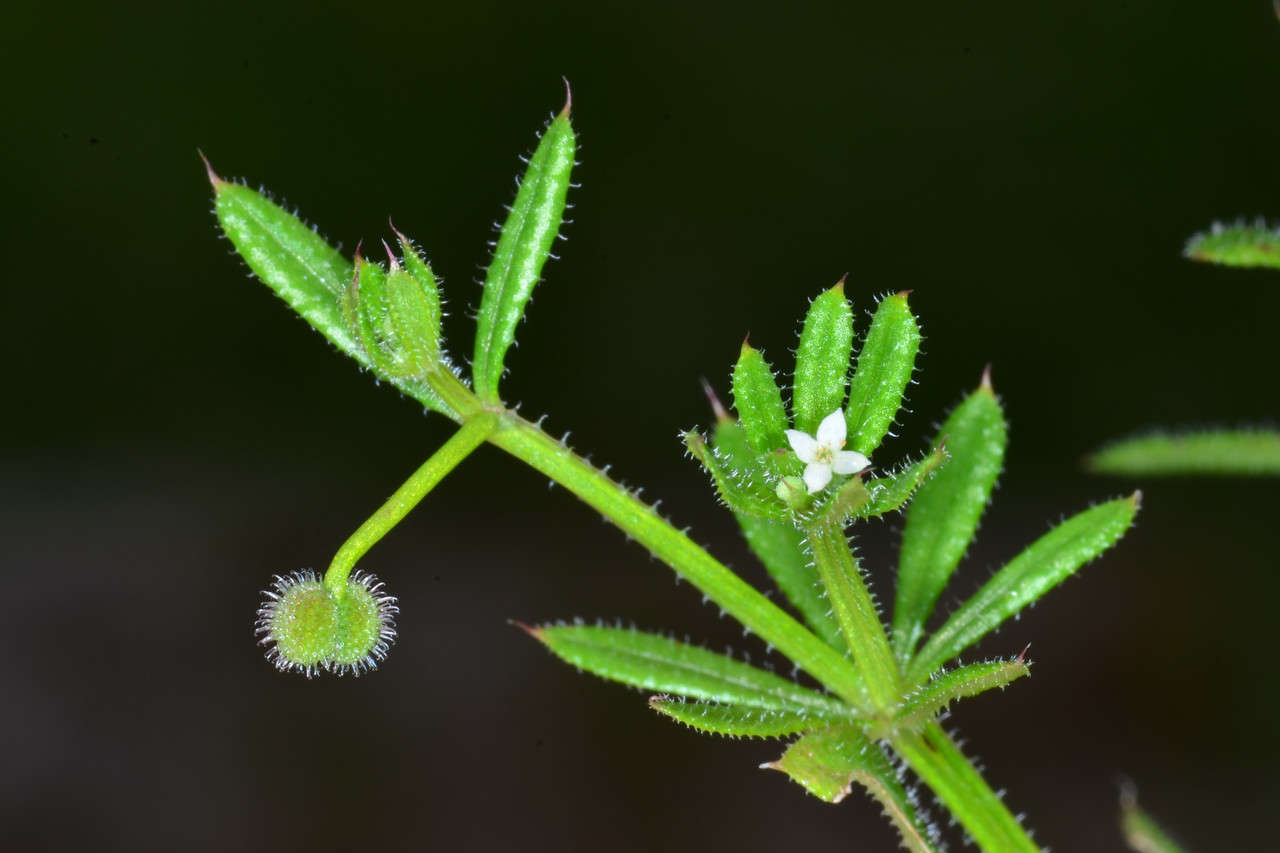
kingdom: Plantae
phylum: Tracheophyta
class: Magnoliopsida
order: Gentianales
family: Rubiaceae
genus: Galium
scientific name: Galium aparine
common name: Cleavers
